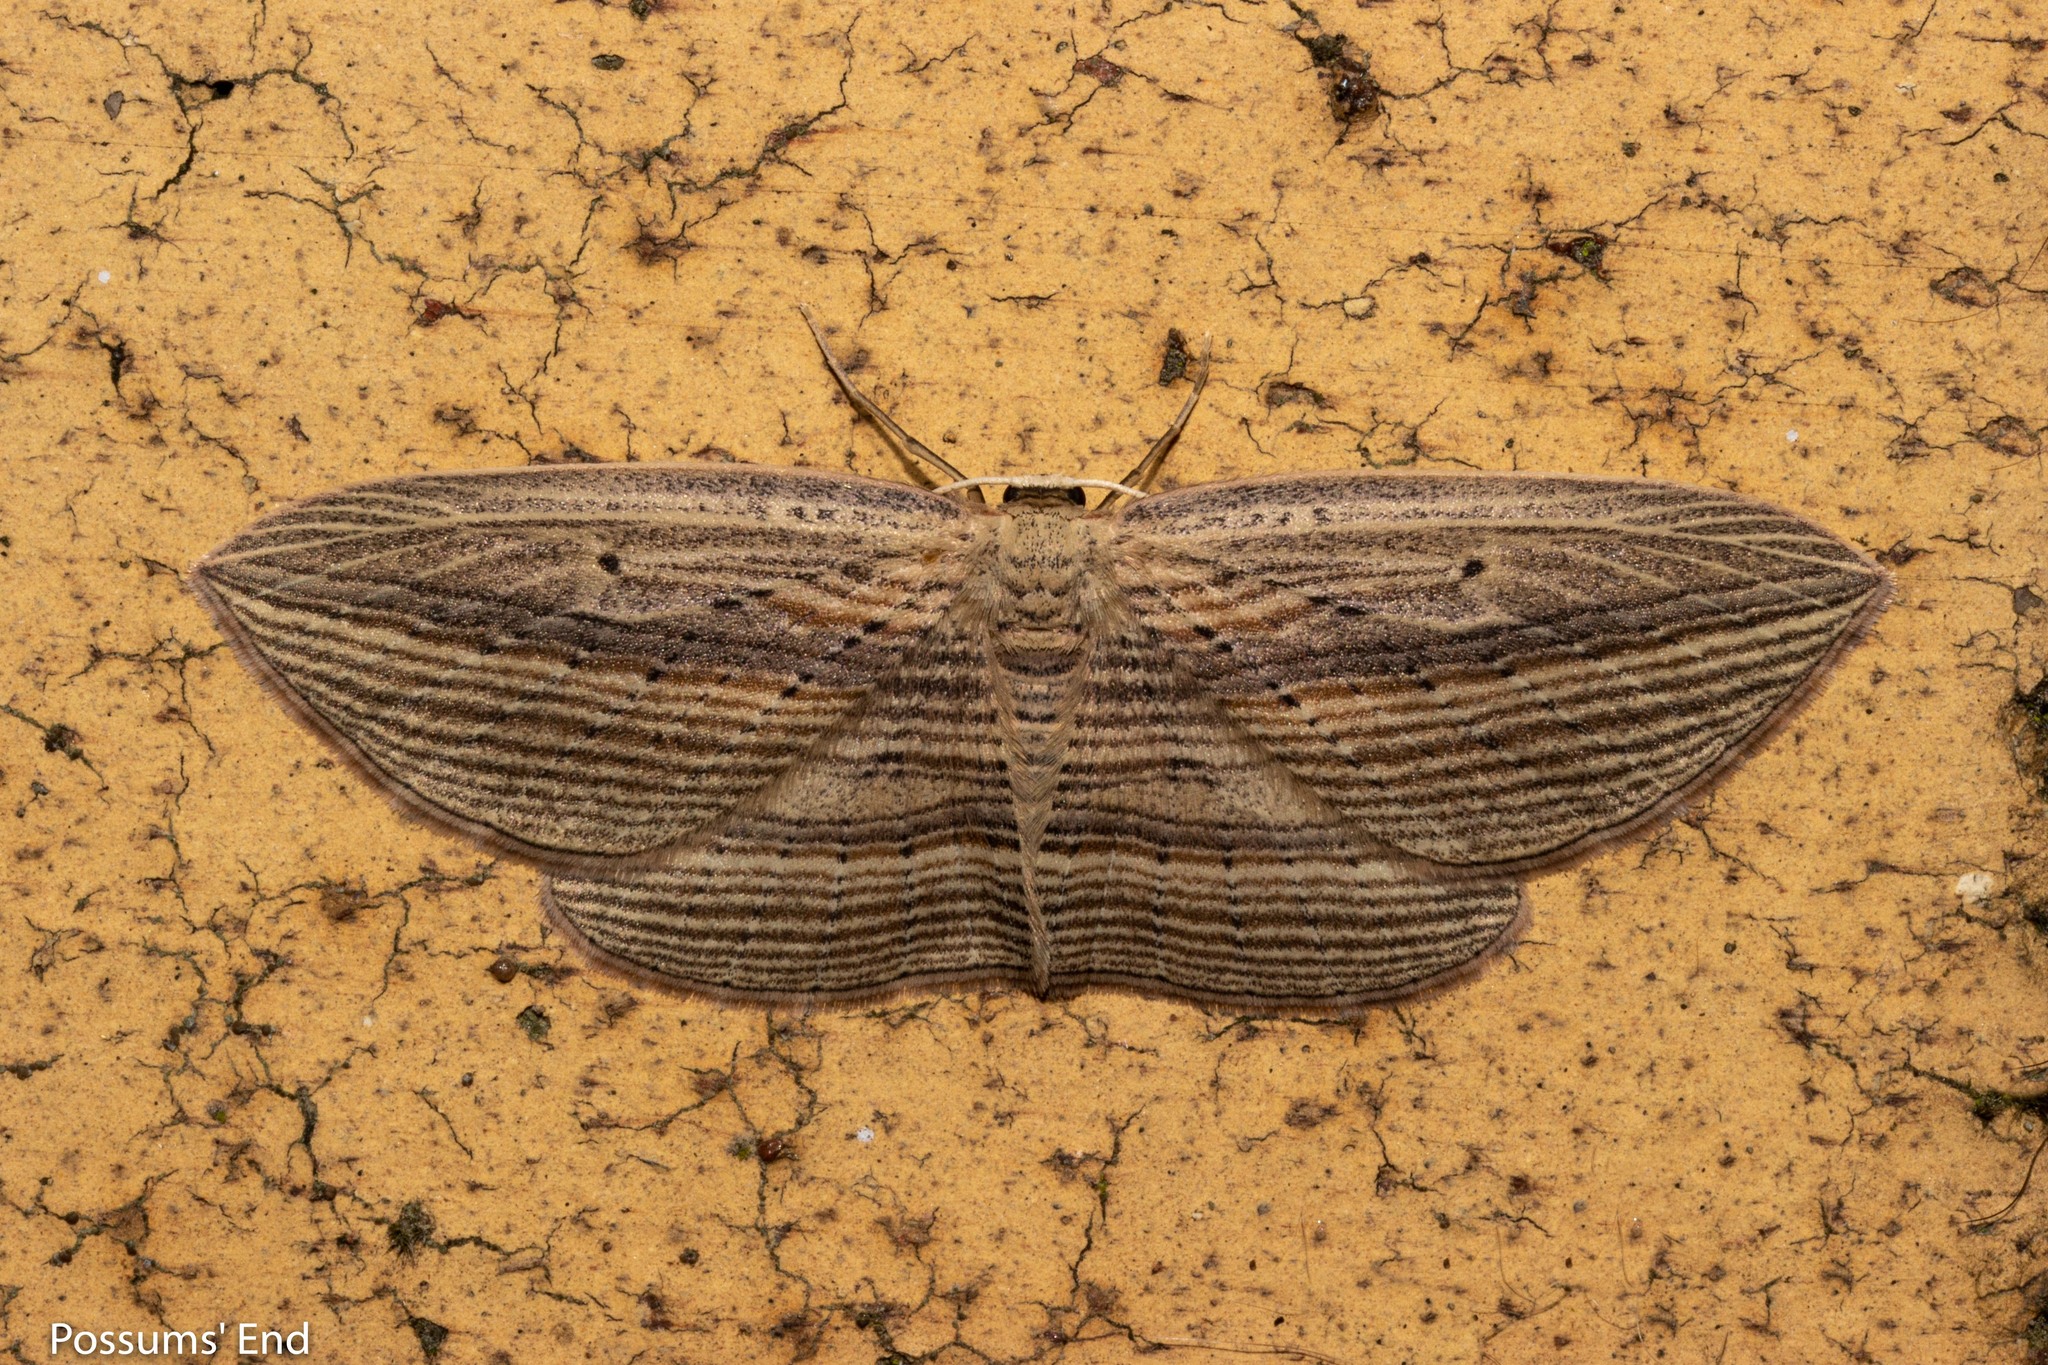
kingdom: Animalia
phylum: Arthropoda
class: Insecta
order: Lepidoptera
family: Geometridae
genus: Epiphryne
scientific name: Epiphryne verriculata
